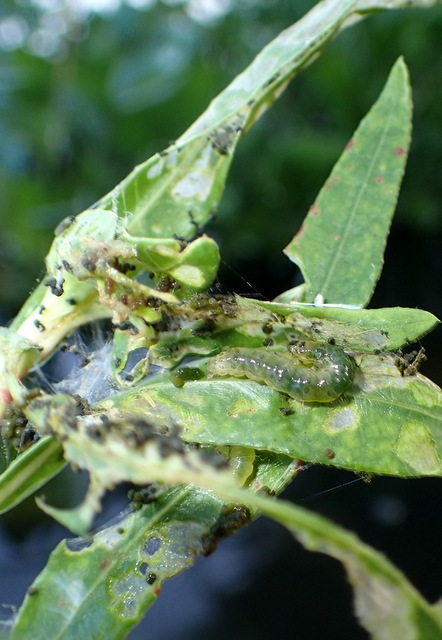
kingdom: Animalia
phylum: Arthropoda
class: Insecta
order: Lepidoptera
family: Crambidae
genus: Herpetogramma
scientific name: Herpetogramma bipunctalis
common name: Southern beet webworm
